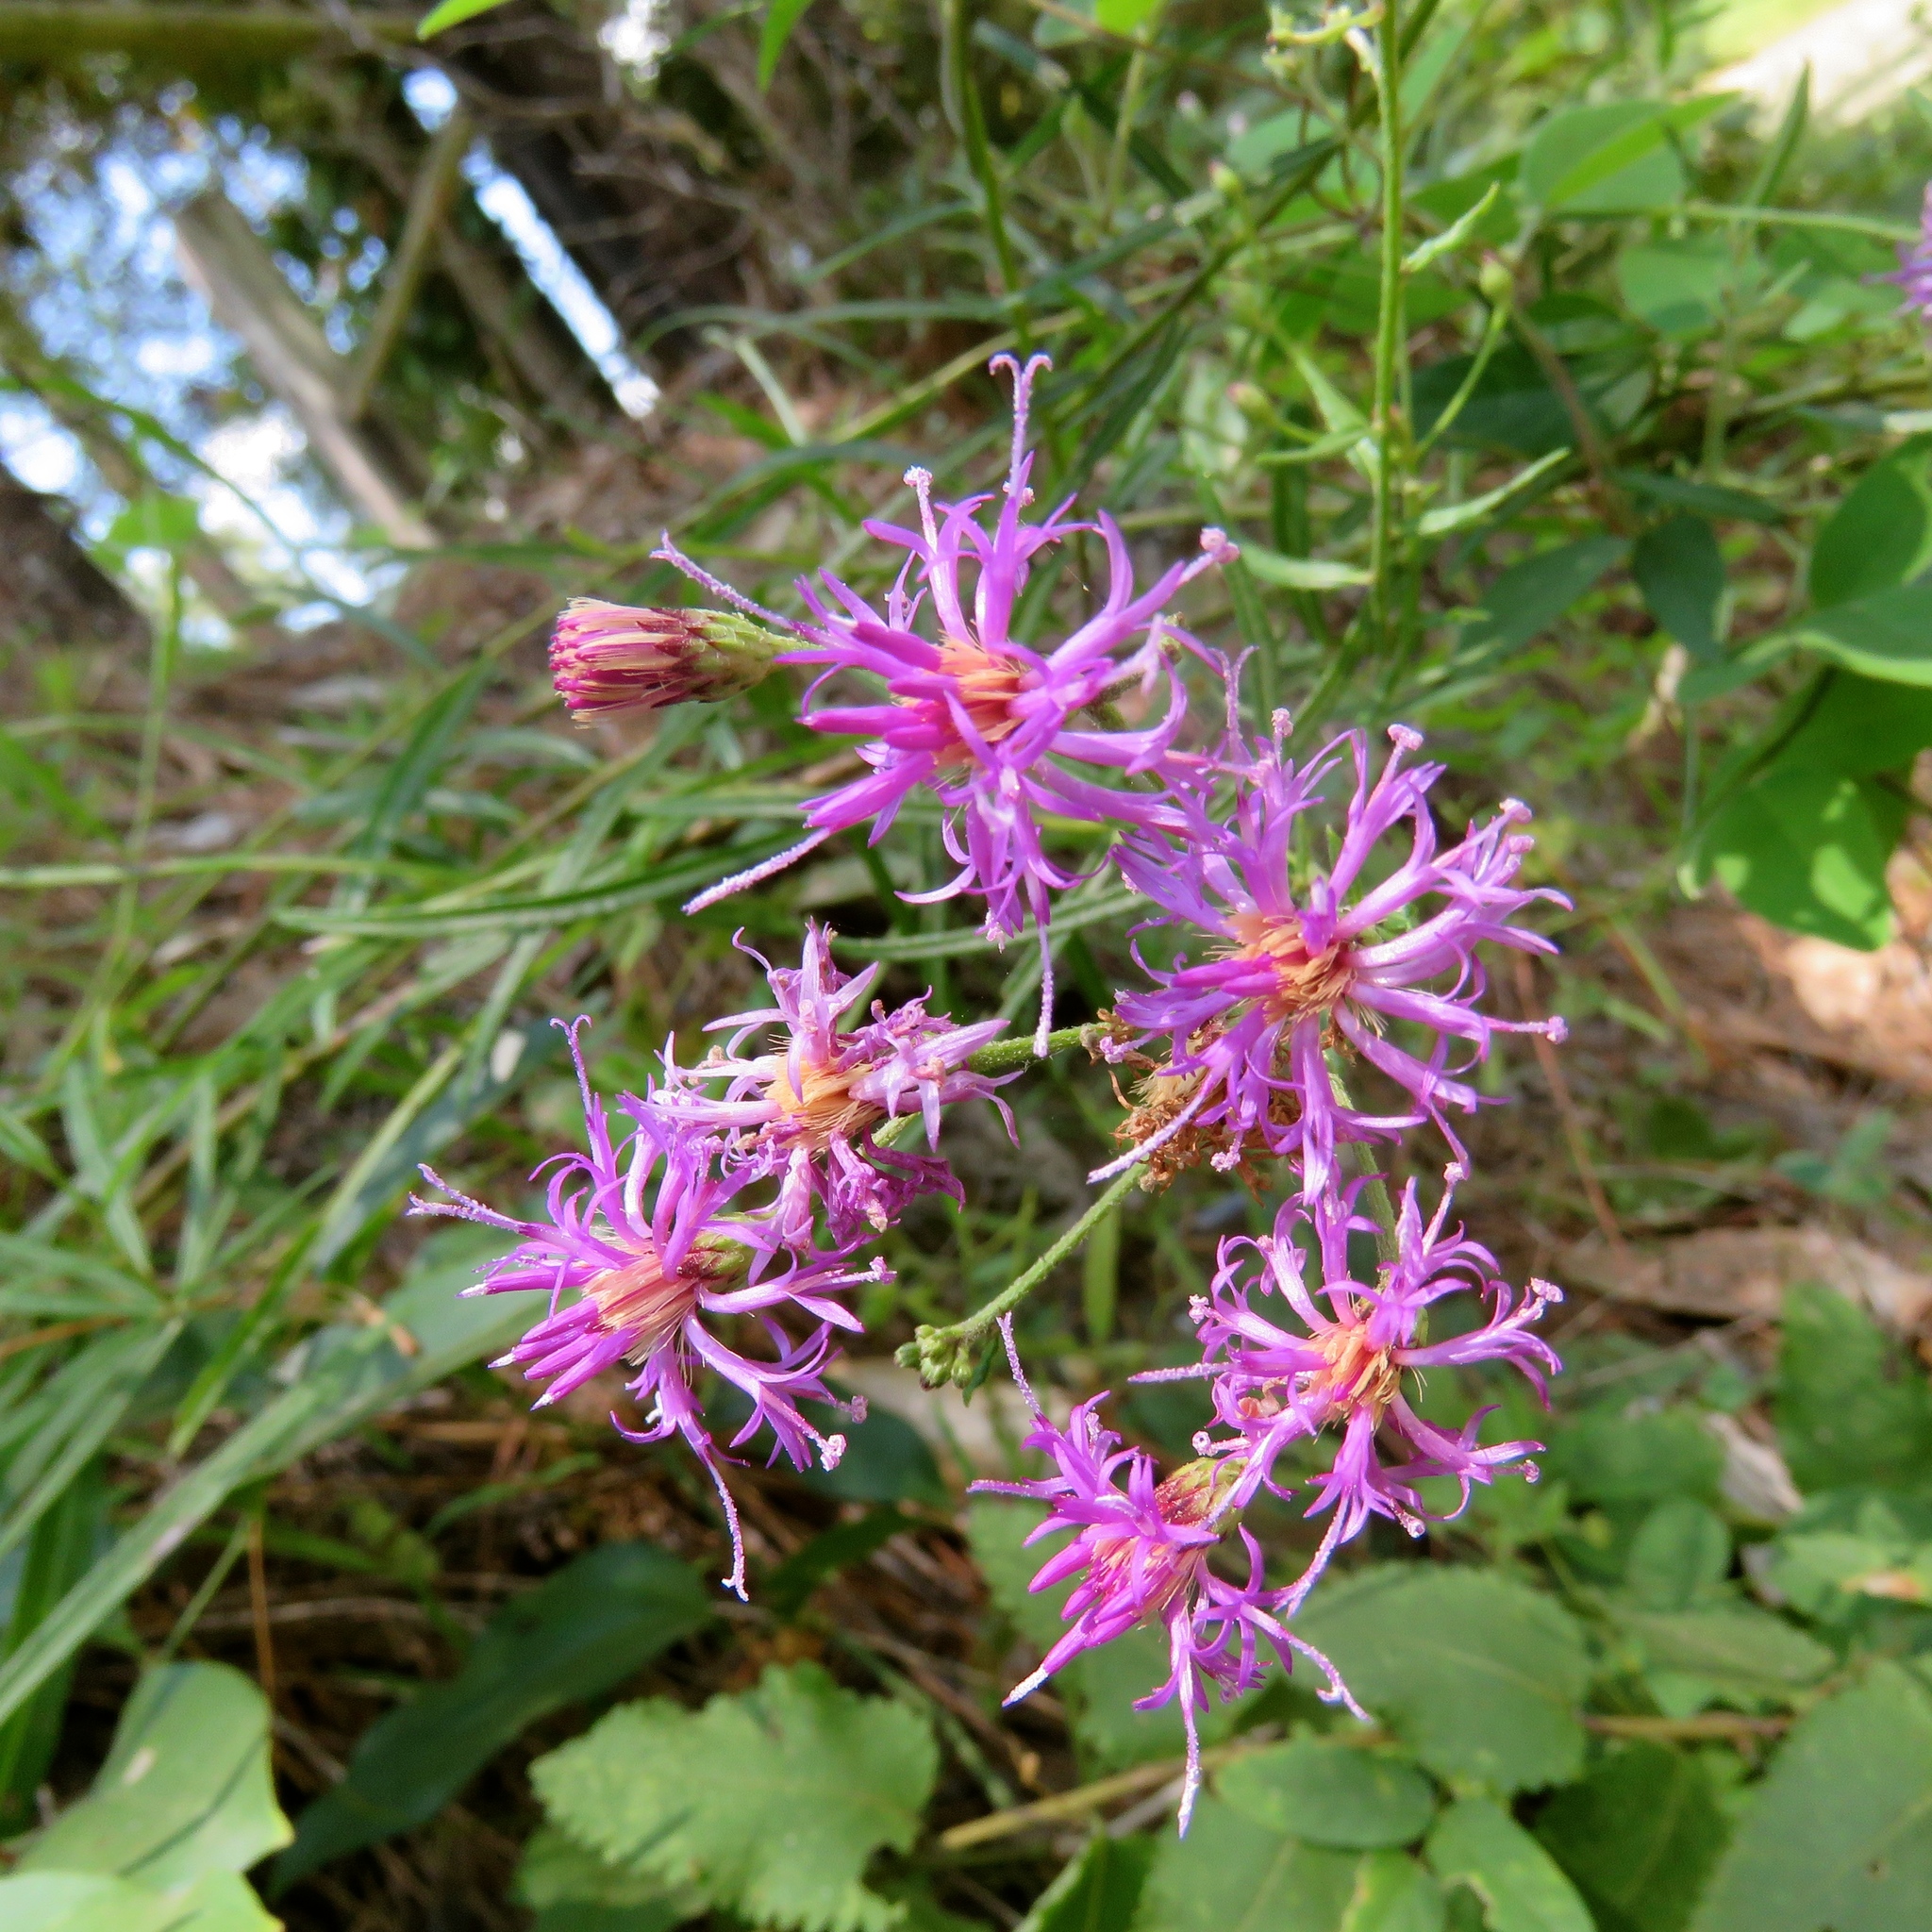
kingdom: Plantae
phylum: Tracheophyta
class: Magnoliopsida
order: Asterales
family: Asteraceae
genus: Vernonia
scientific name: Vernonia texana
